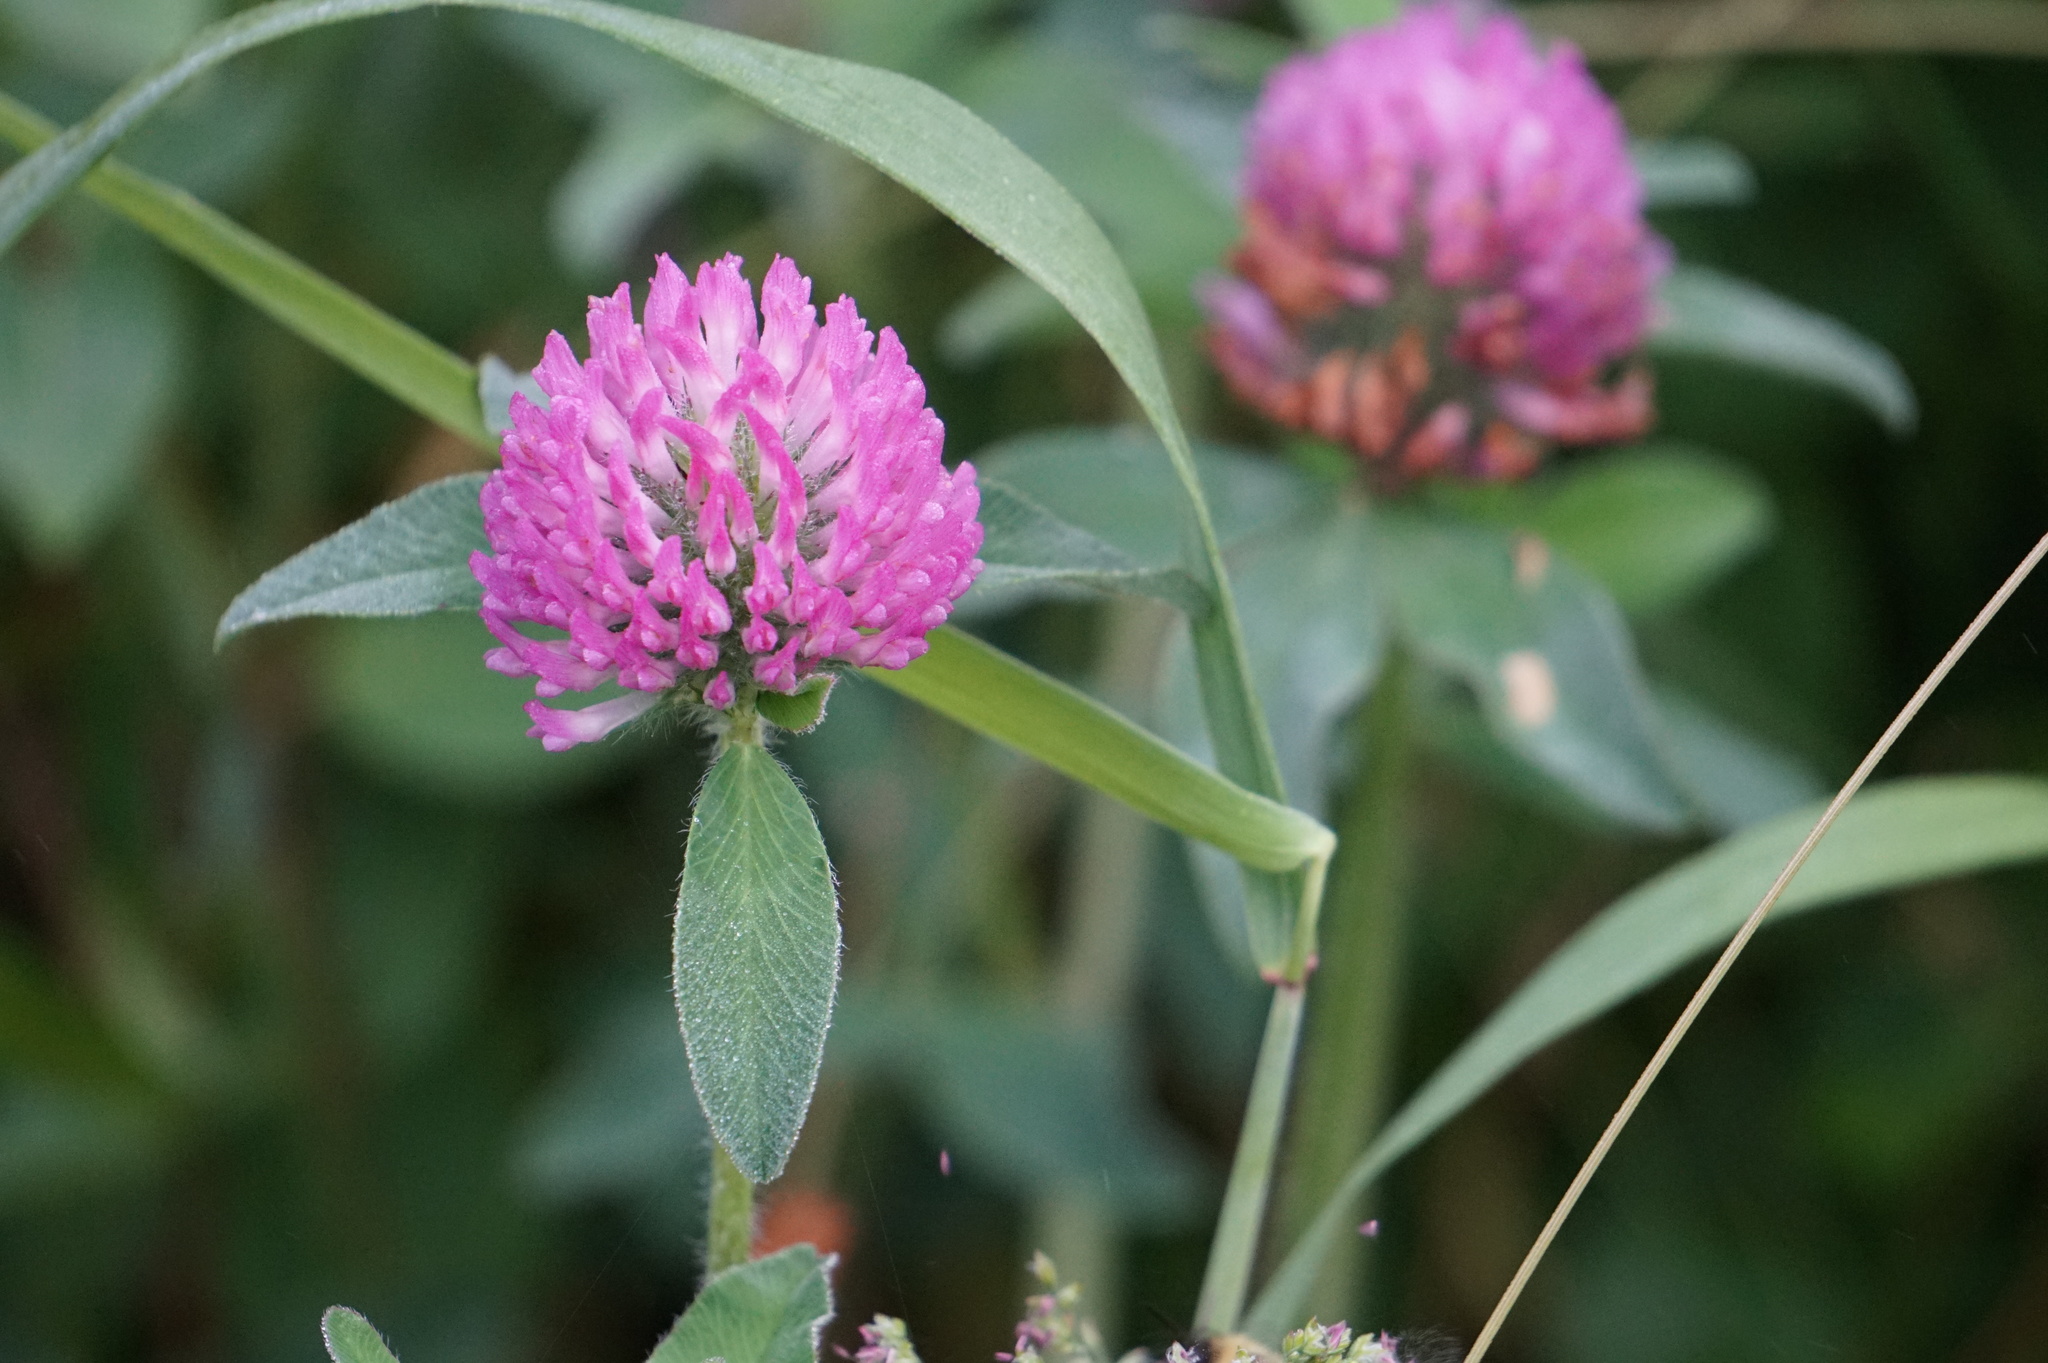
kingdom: Plantae
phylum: Tracheophyta
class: Magnoliopsida
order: Fabales
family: Fabaceae
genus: Trifolium
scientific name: Trifolium pratense
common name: Red clover
